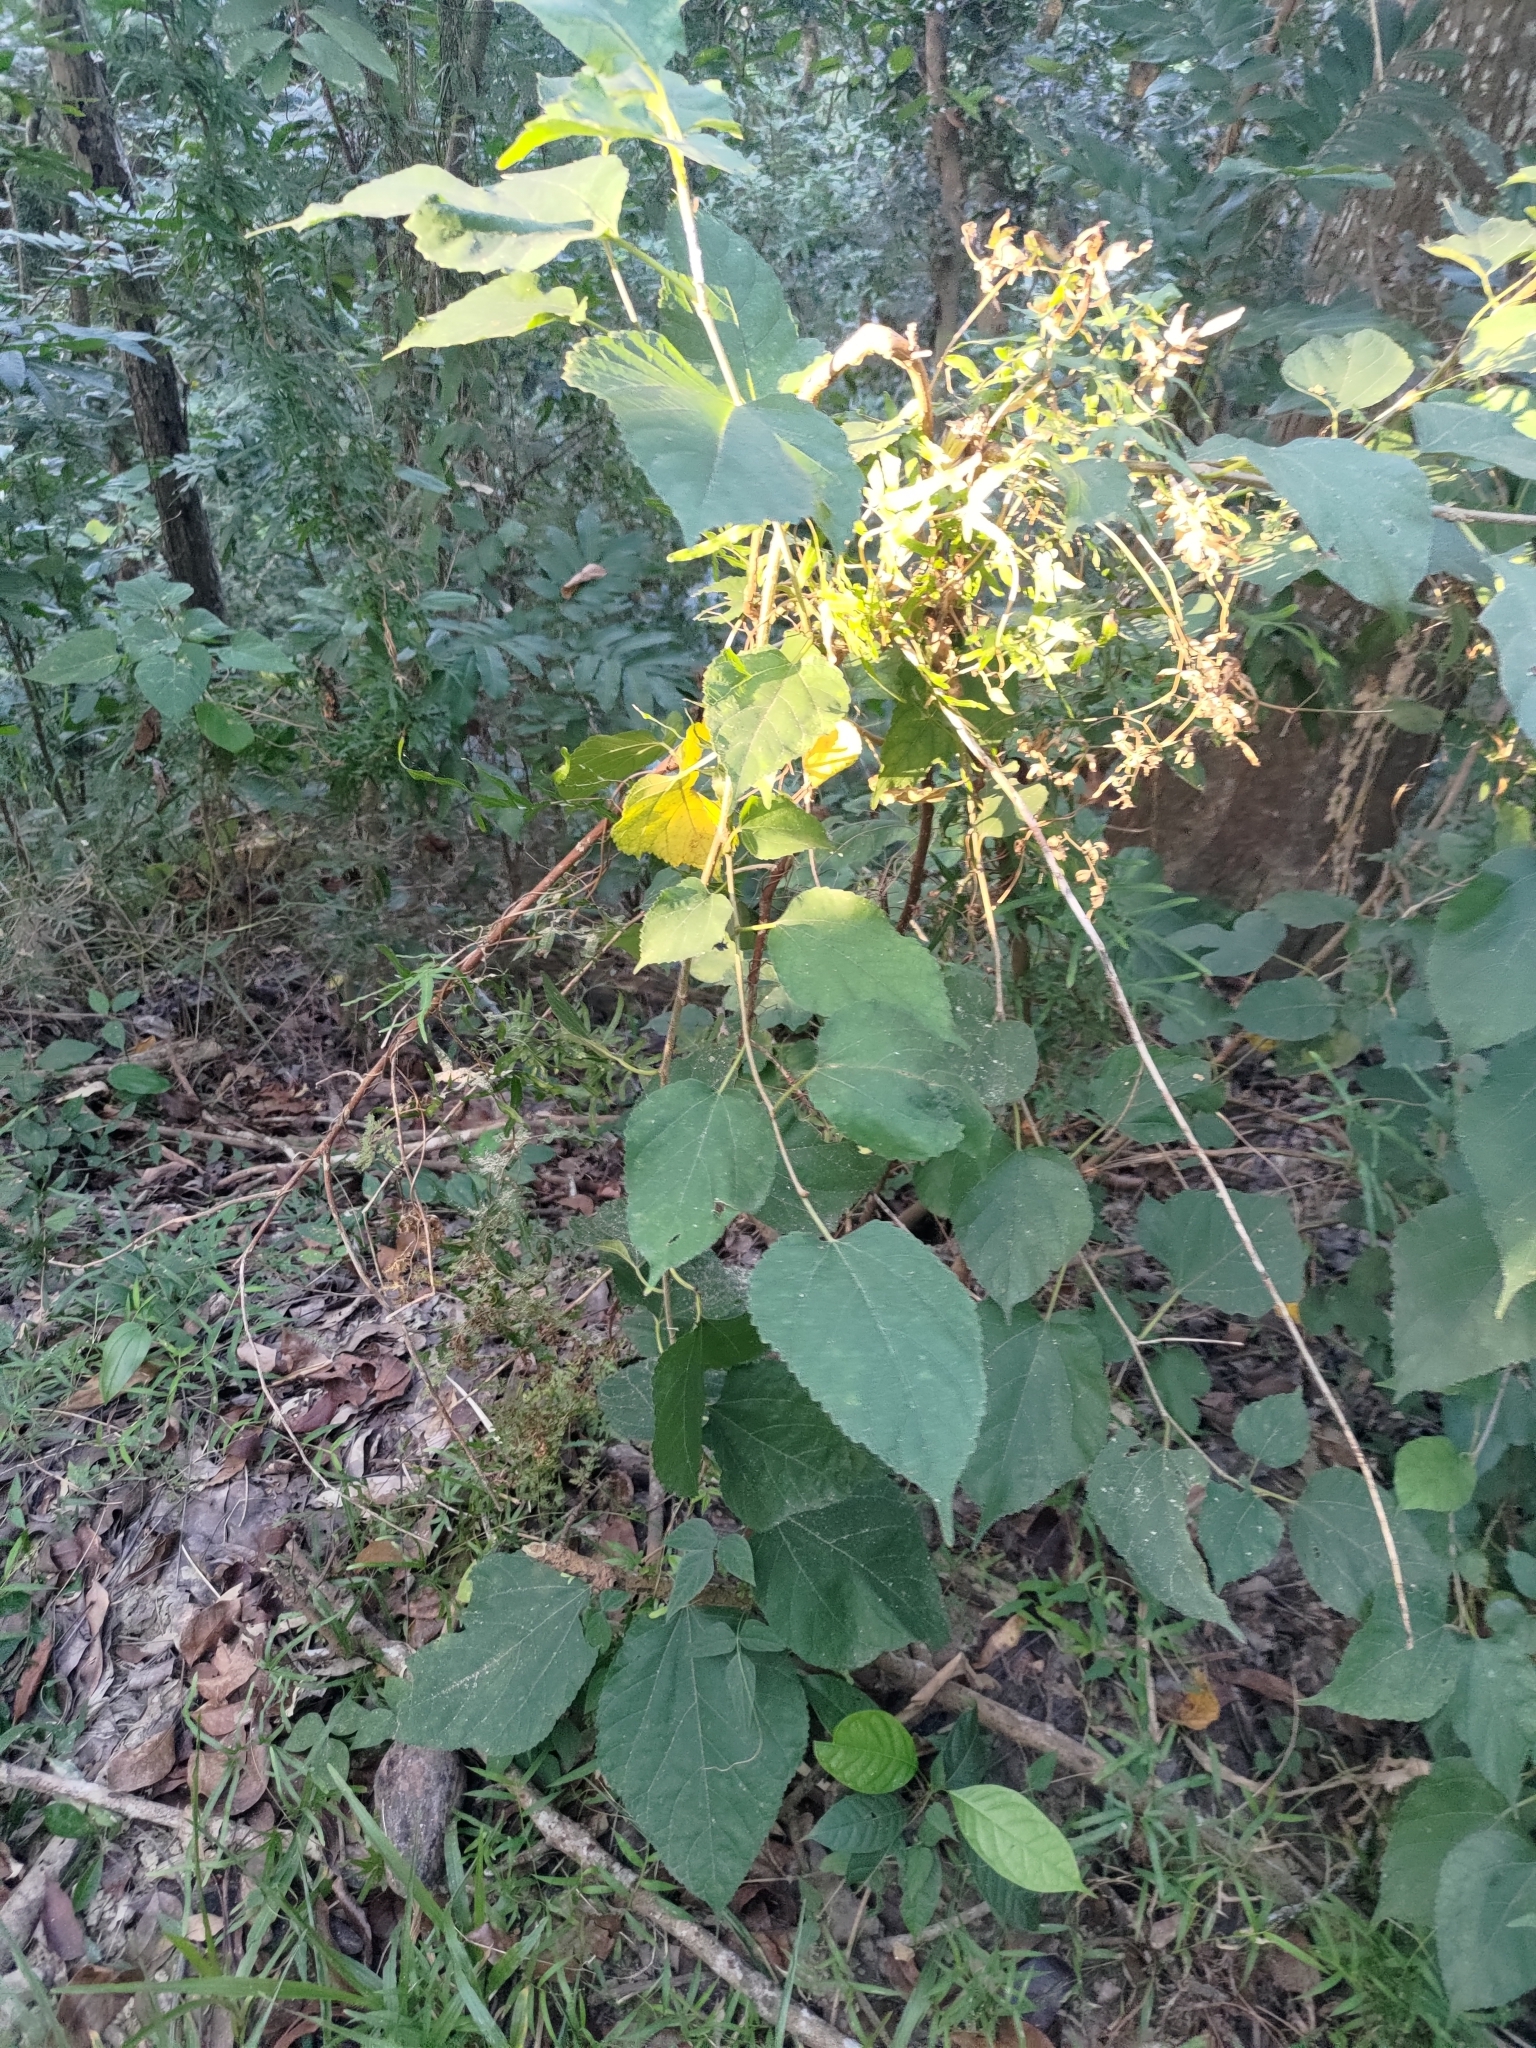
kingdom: Plantae
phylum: Tracheophyta
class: Magnoliopsida
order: Rosales
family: Moraceae
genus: Morus
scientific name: Morus indica
